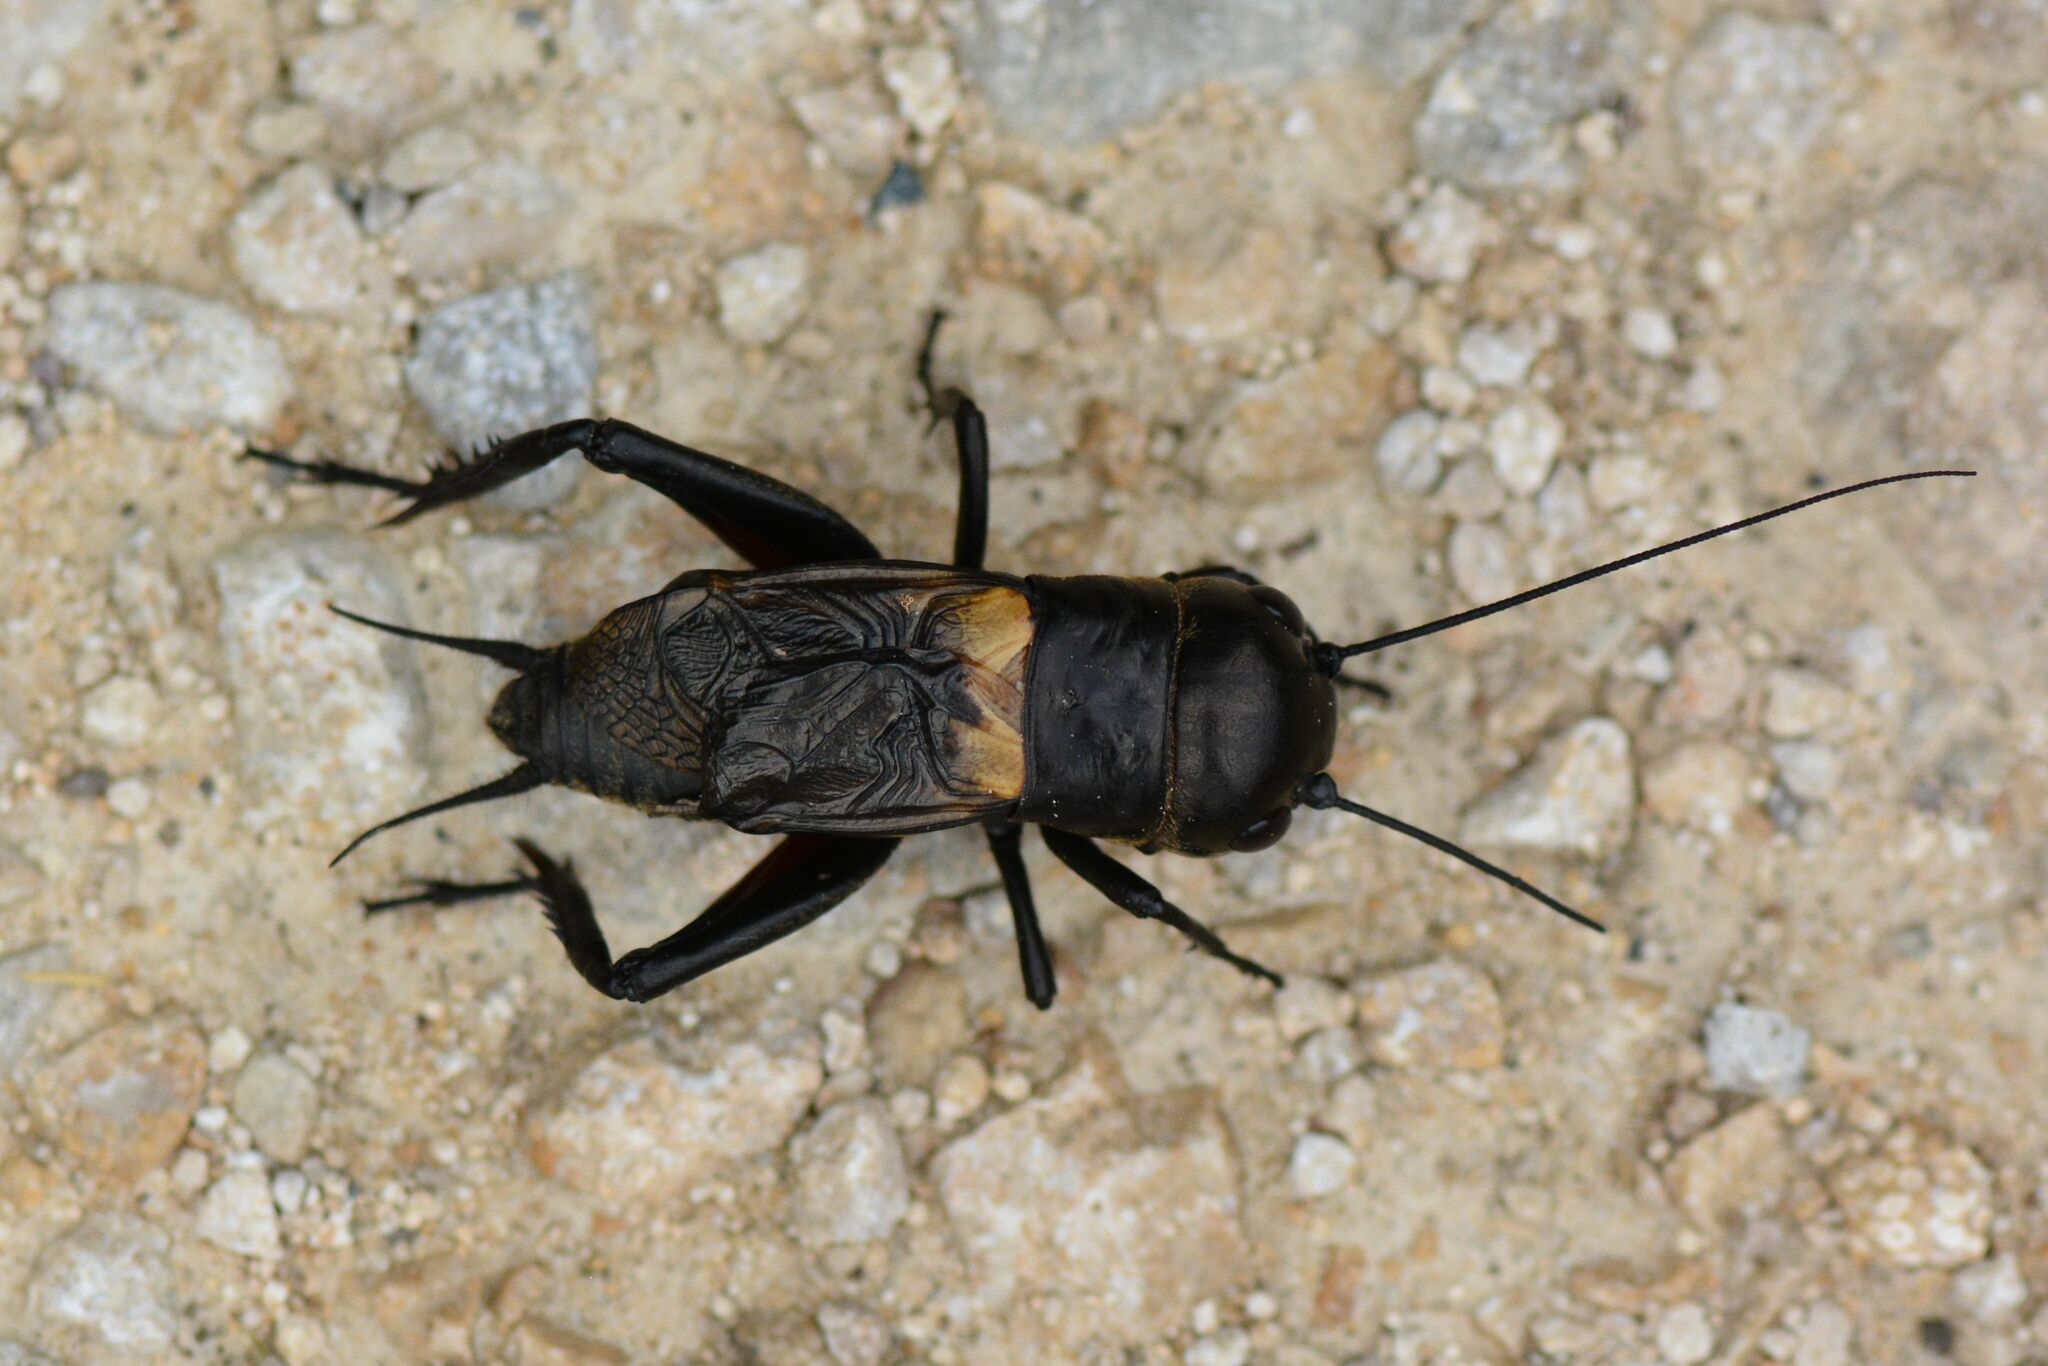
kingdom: Animalia
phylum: Arthropoda
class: Insecta
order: Orthoptera
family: Gryllidae
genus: Gryllus
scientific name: Gryllus campestris
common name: Field cricket
